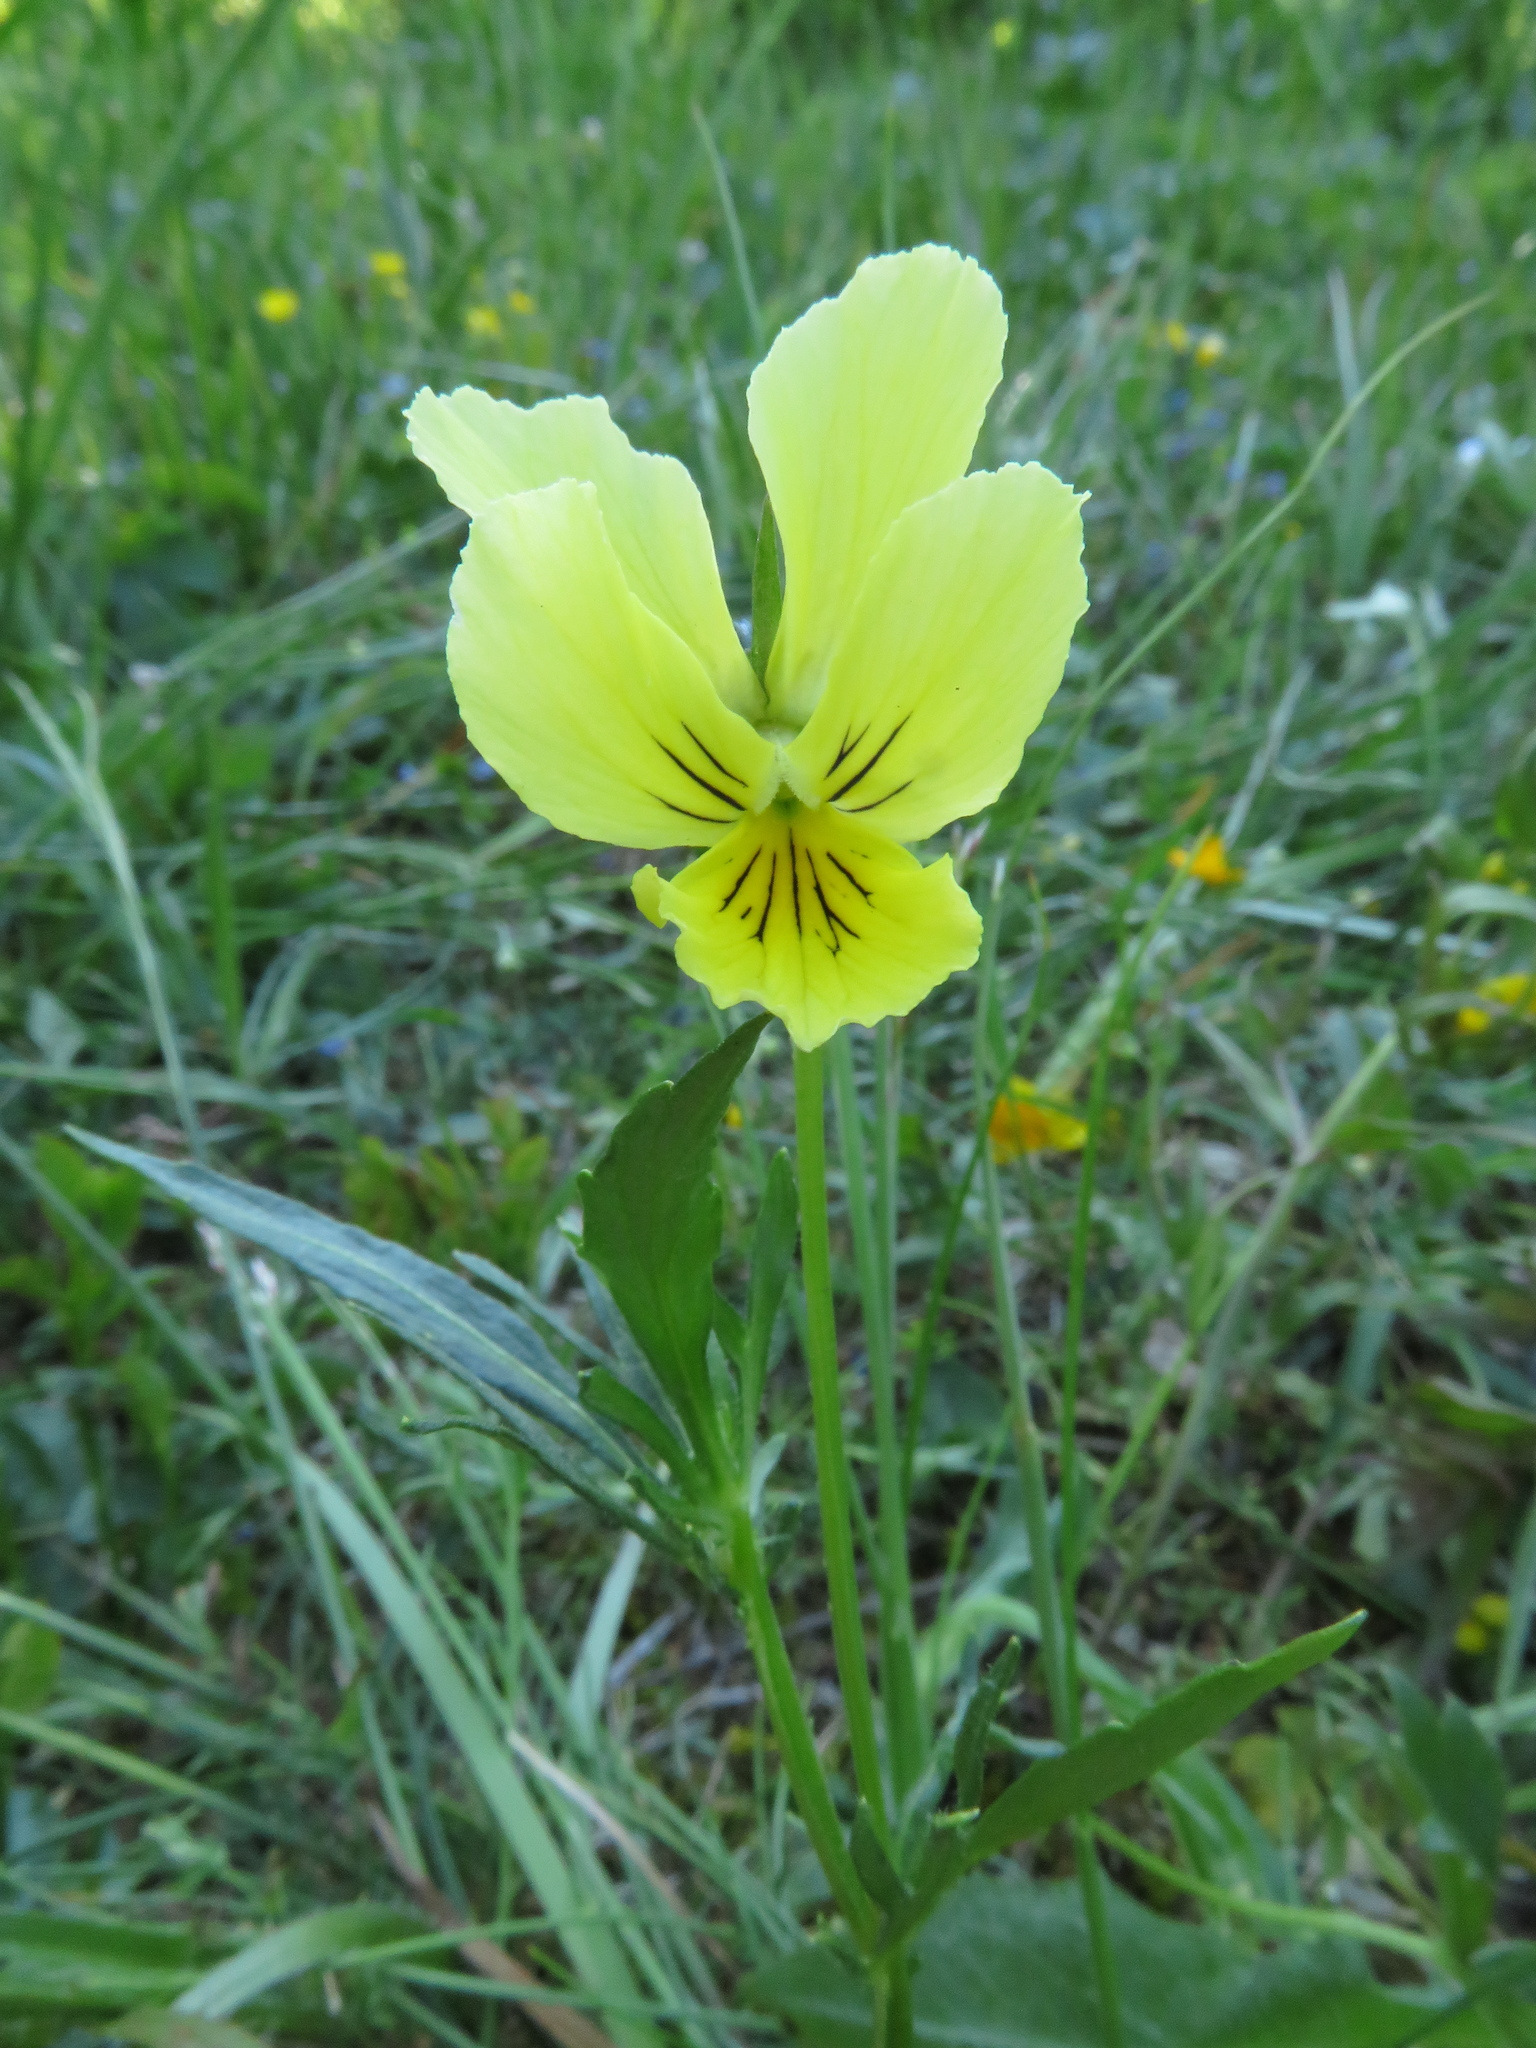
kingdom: Plantae
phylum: Tracheophyta
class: Magnoliopsida
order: Malpighiales
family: Violaceae
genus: Viola
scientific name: Viola lutea
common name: Mountain pansy
